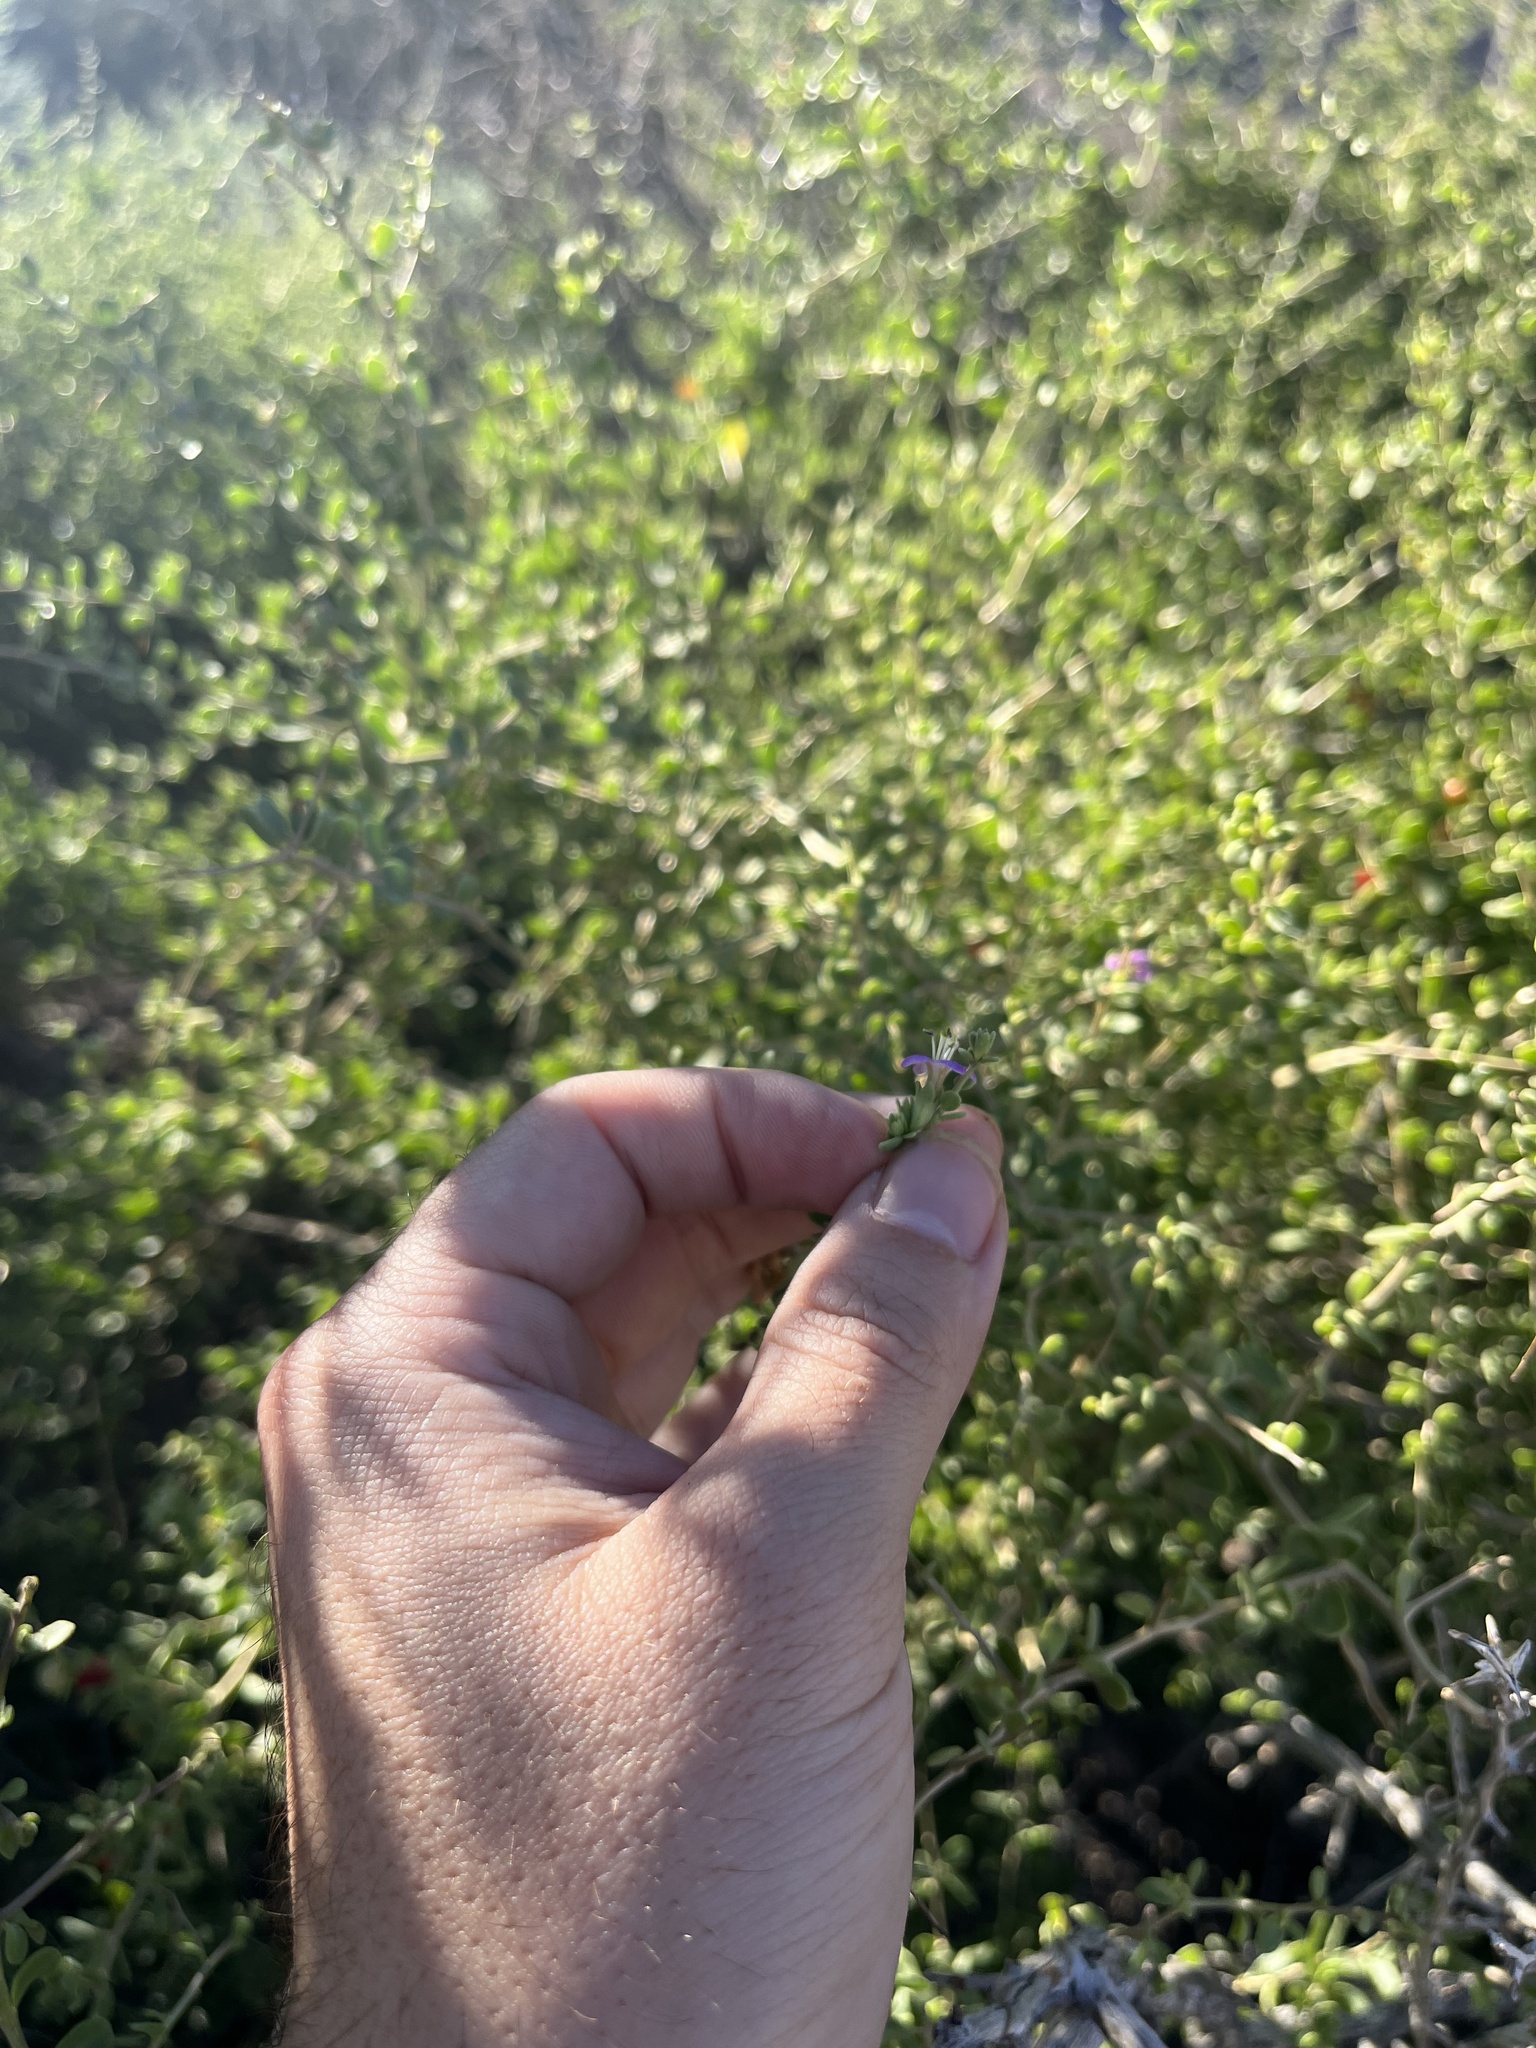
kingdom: Plantae
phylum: Tracheophyta
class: Magnoliopsida
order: Solanales
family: Solanaceae
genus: Lycium
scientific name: Lycium brevipes
